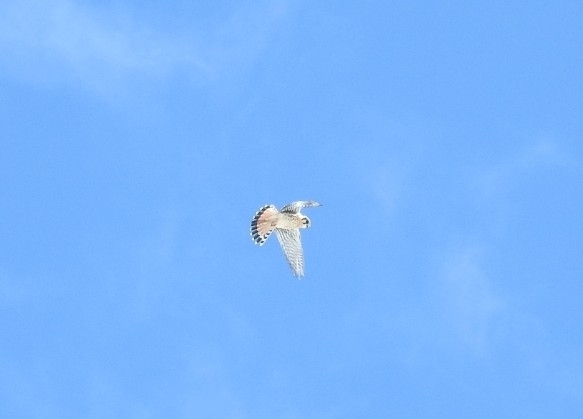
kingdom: Animalia
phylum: Chordata
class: Aves
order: Falconiformes
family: Falconidae
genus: Falco
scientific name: Falco sparverius
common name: American kestrel
